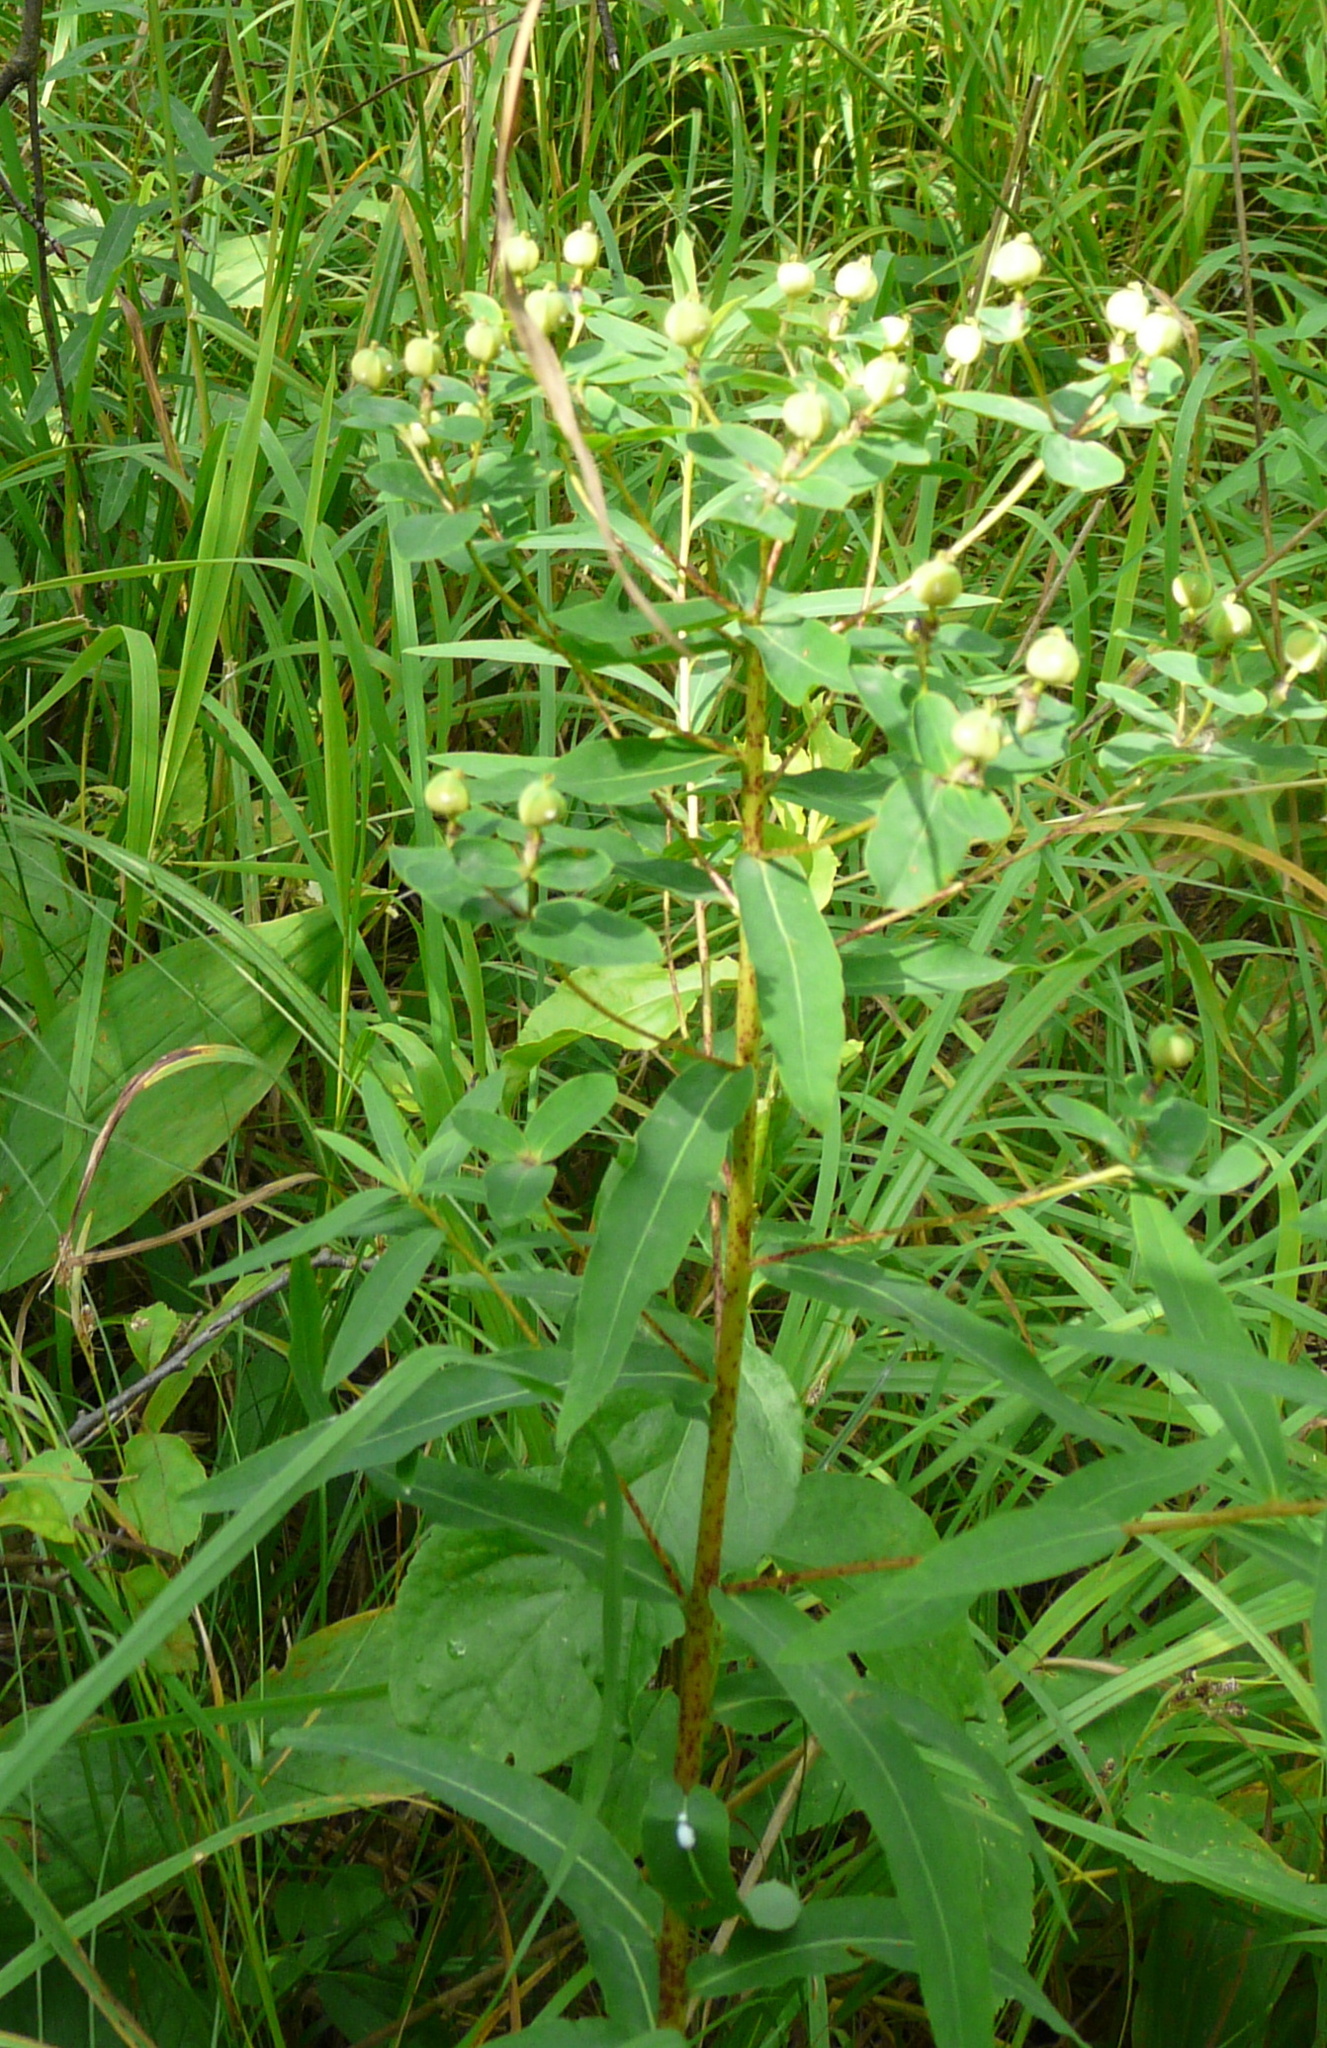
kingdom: Plantae
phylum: Tracheophyta
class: Magnoliopsida
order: Malpighiales
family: Euphorbiaceae
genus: Euphorbia
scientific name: Euphorbia semivillosa
